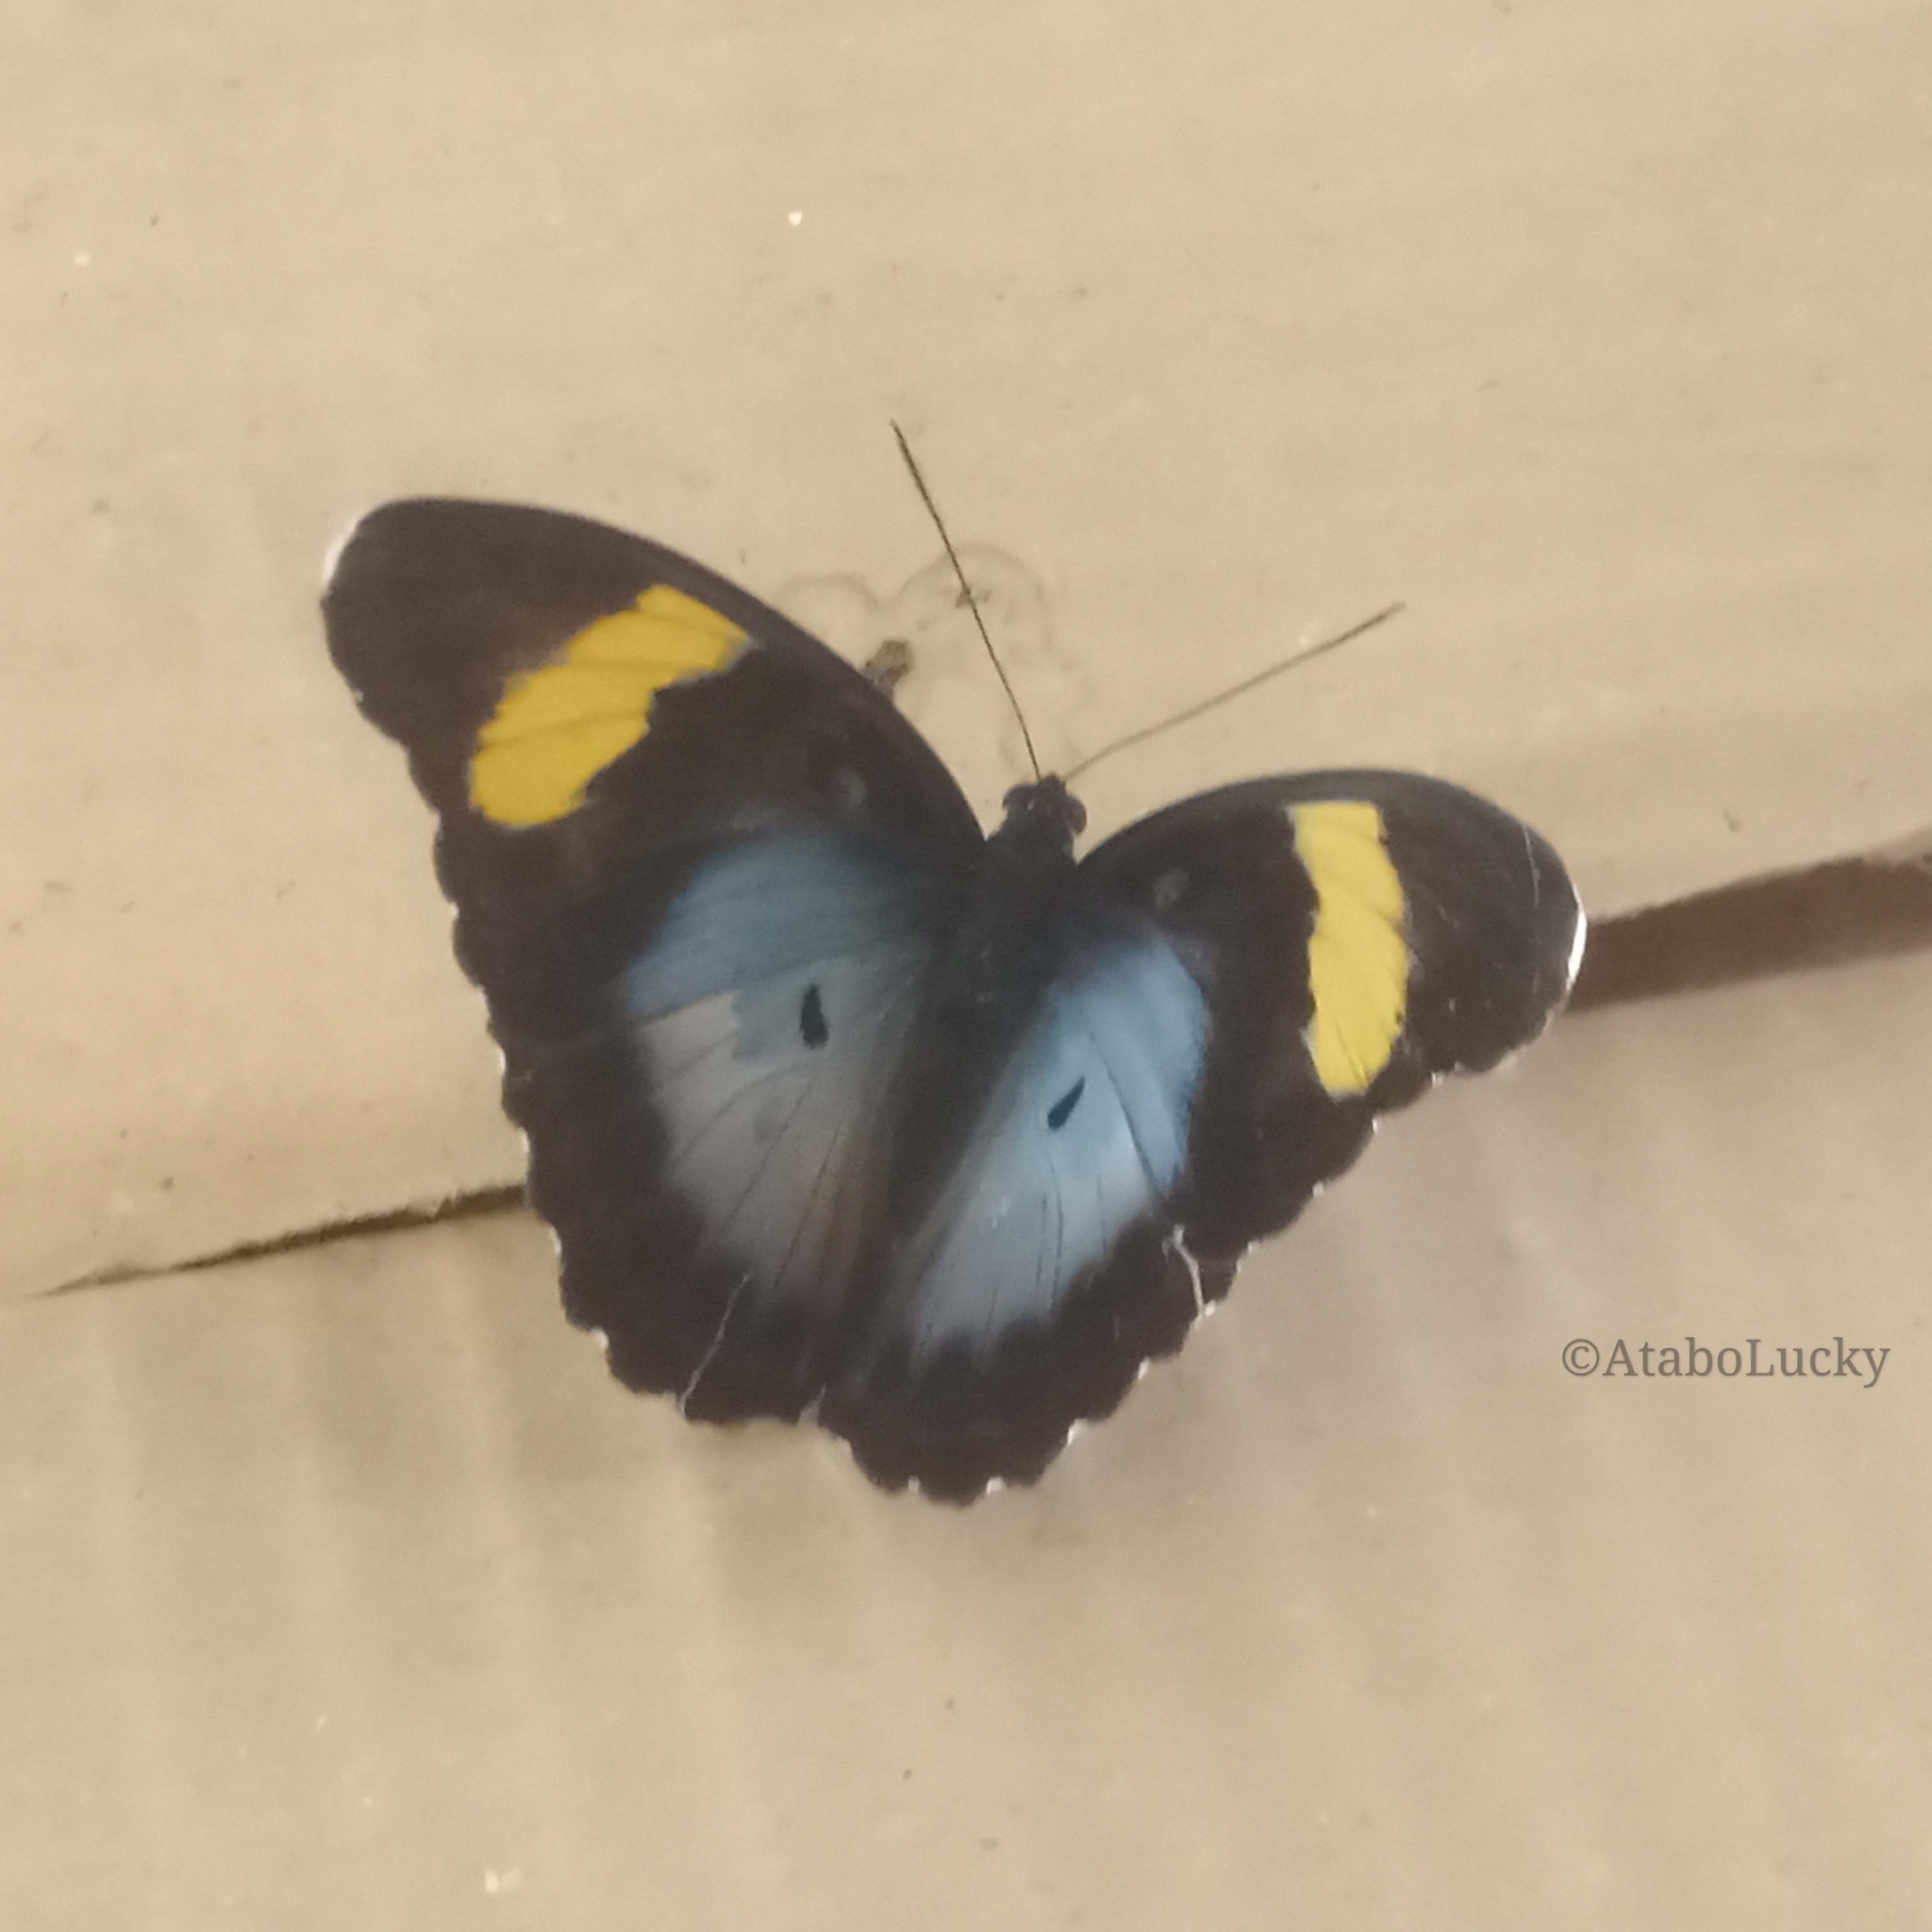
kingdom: Animalia
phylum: Arthropoda
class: Insecta
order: Lepidoptera
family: Nymphalidae
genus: Euphaedra
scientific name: Euphaedra ceres
